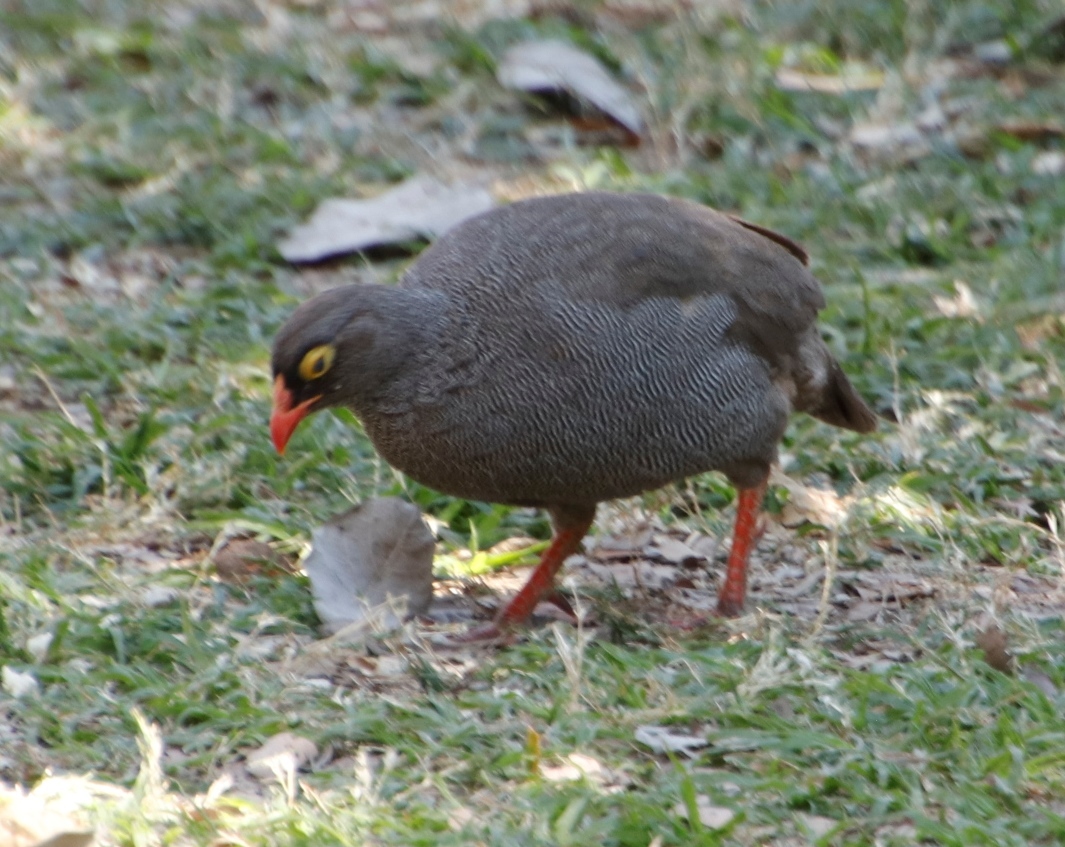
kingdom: Animalia
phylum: Chordata
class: Aves
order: Galliformes
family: Phasianidae
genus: Pternistis
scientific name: Pternistis adspersus
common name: Red-billed spurfowl
